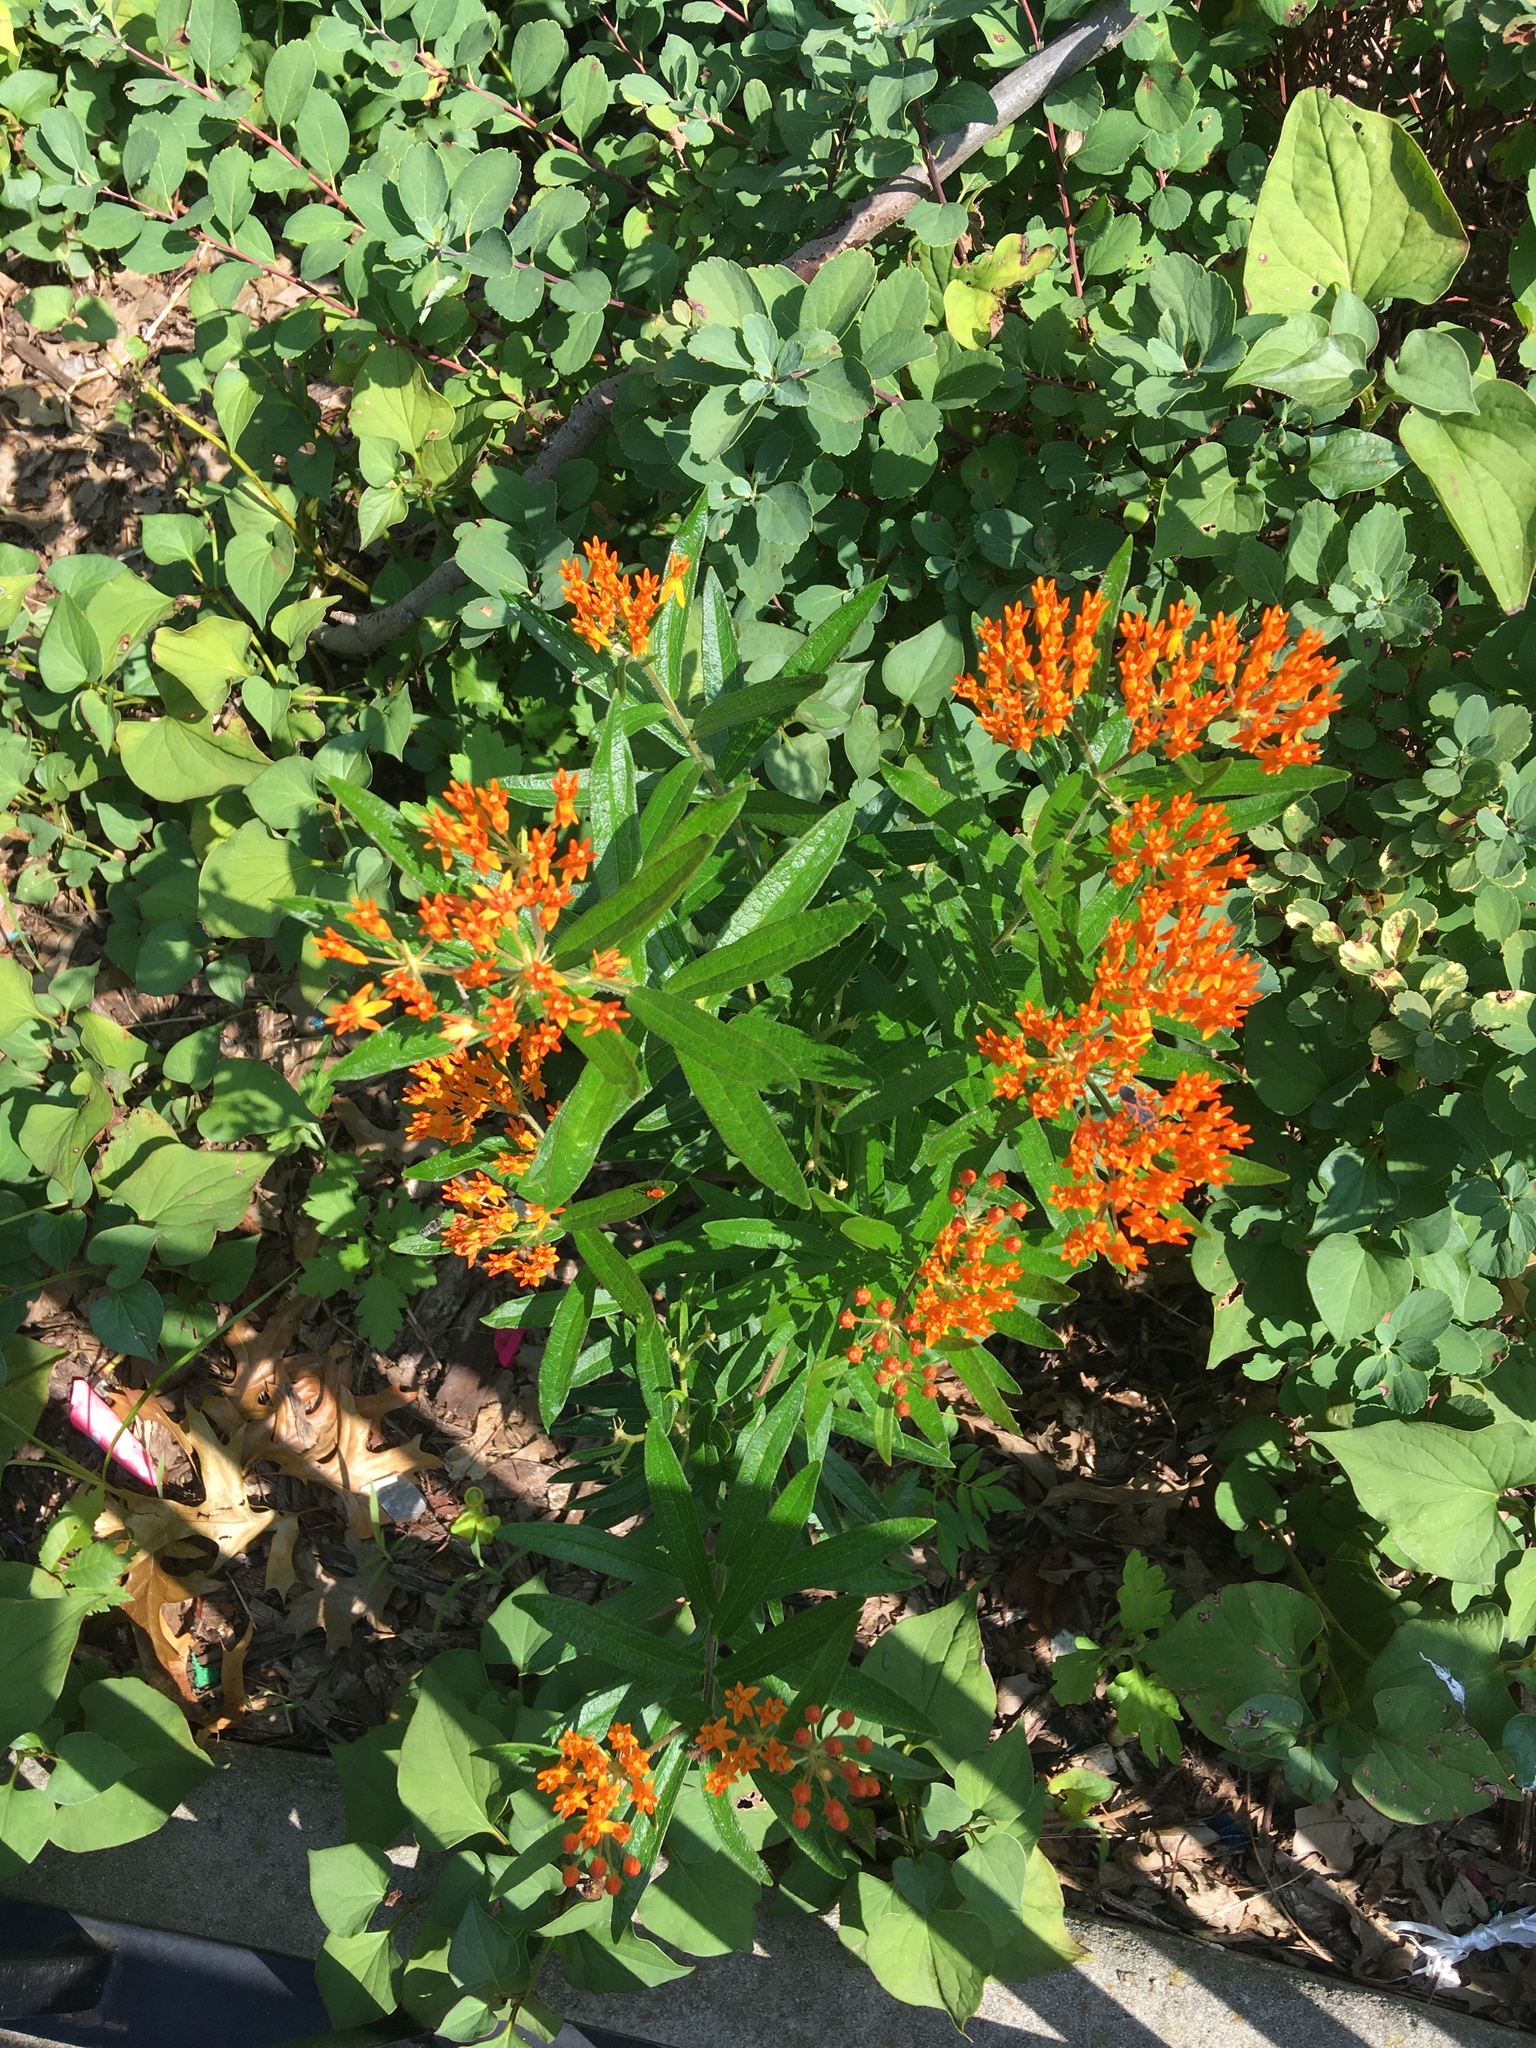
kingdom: Plantae
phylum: Tracheophyta
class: Magnoliopsida
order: Gentianales
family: Apocynaceae
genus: Asclepias
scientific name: Asclepias tuberosa
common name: Butterfly milkweed
